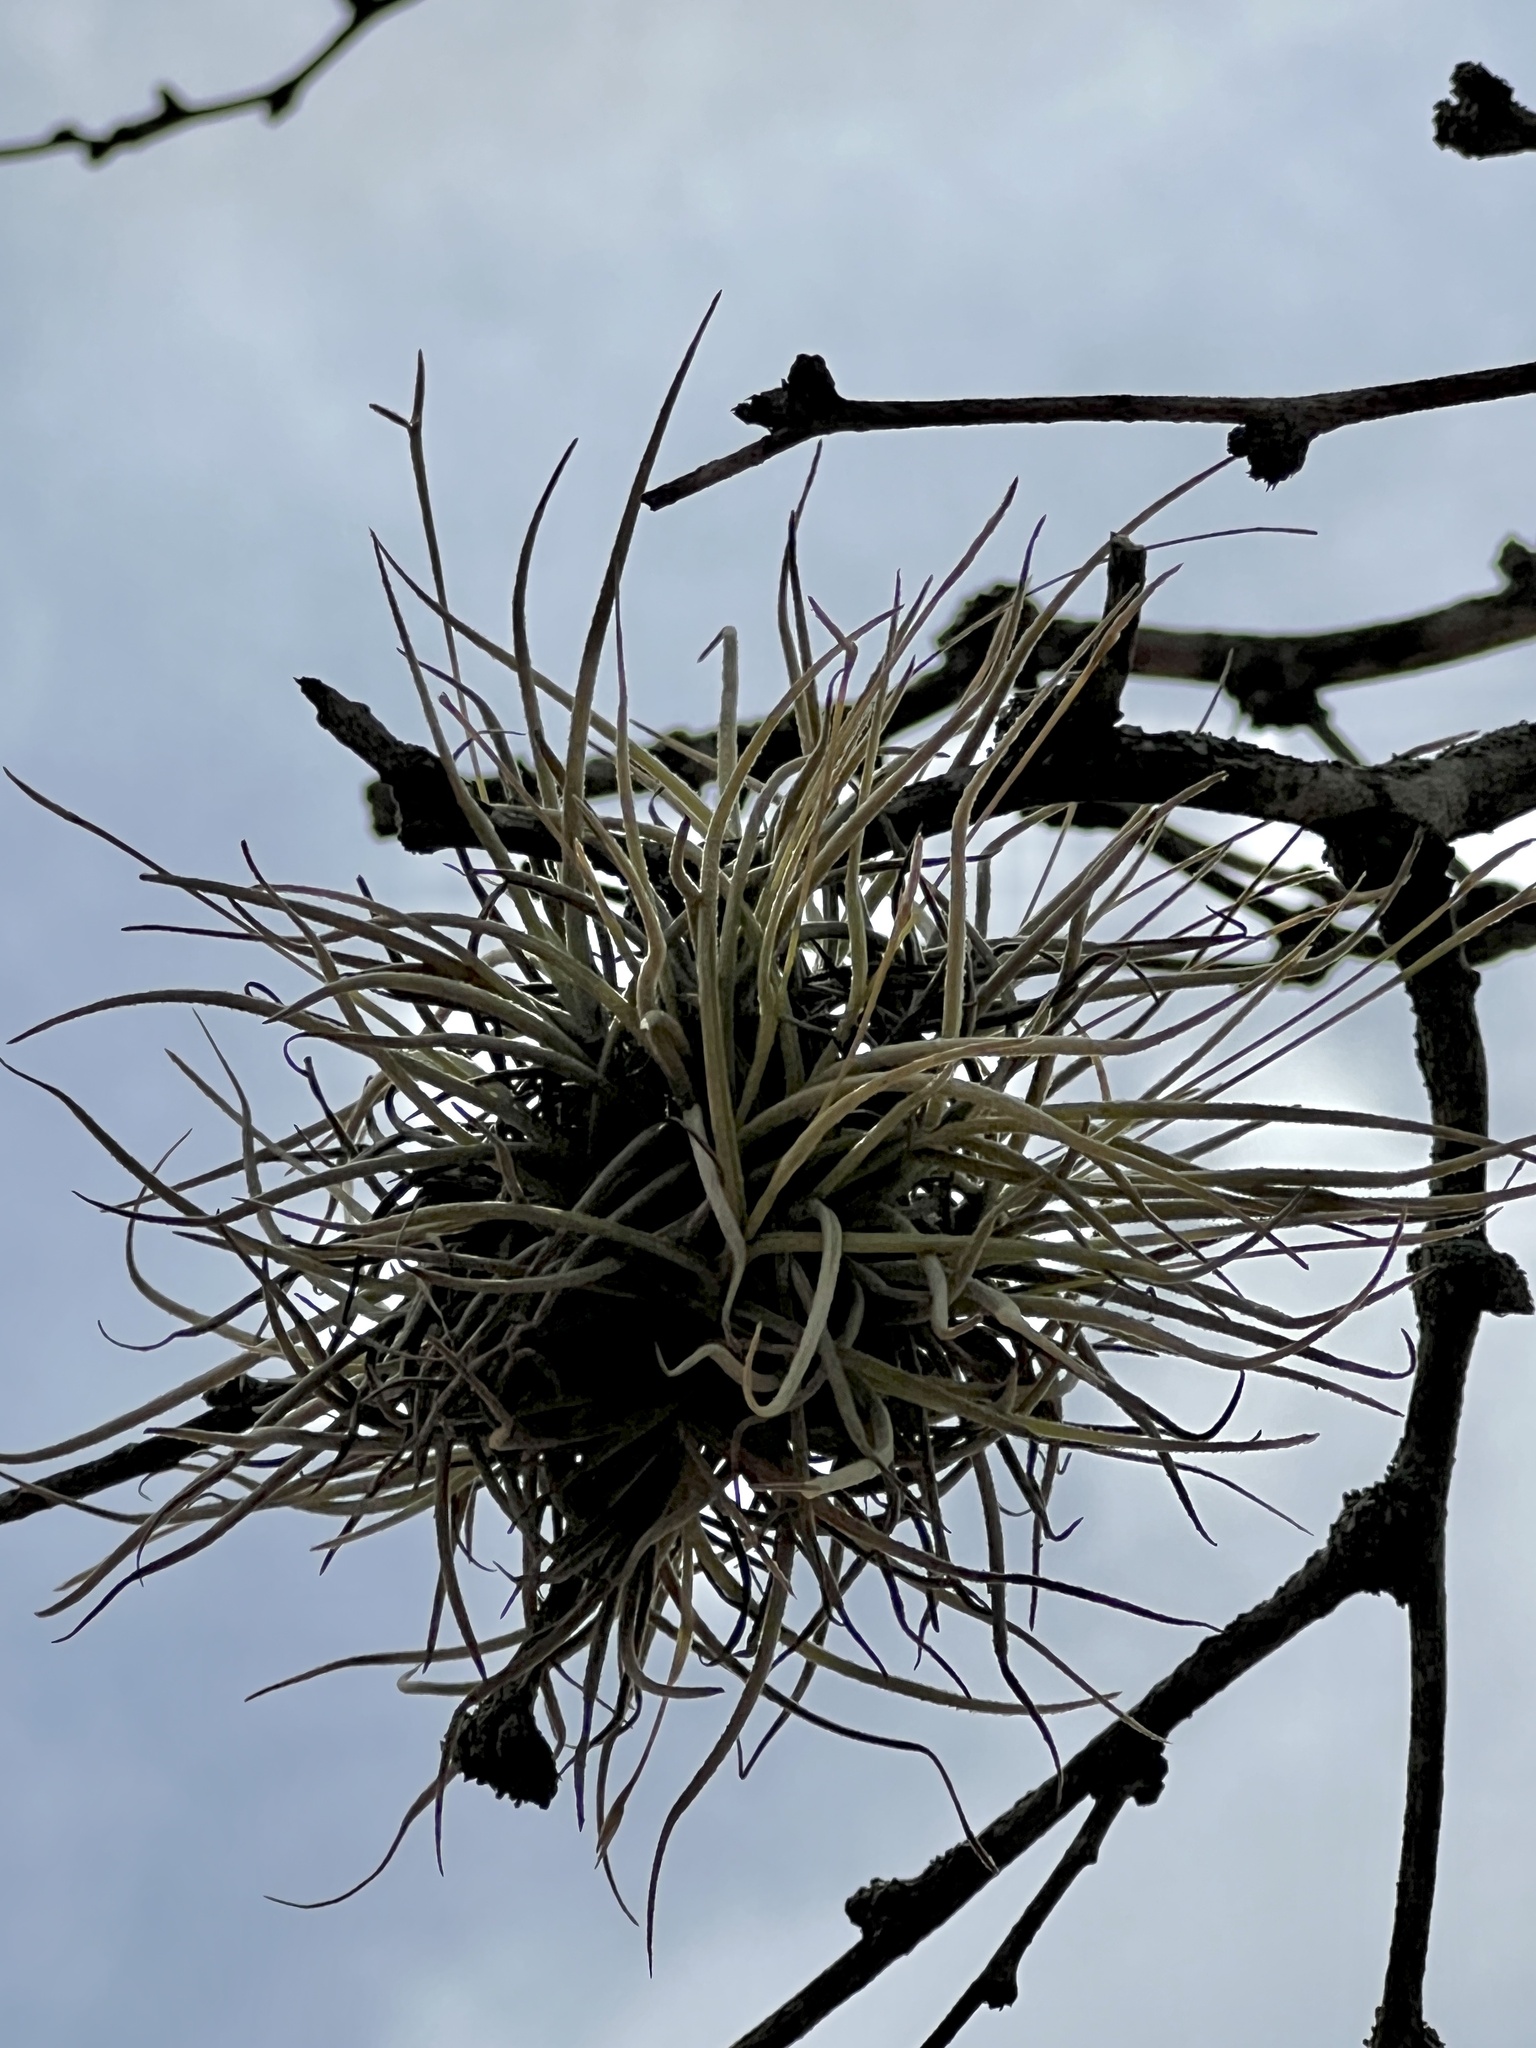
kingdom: Plantae
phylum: Tracheophyta
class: Liliopsida
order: Poales
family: Bromeliaceae
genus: Tillandsia
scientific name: Tillandsia recurvata
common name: Small ballmoss
